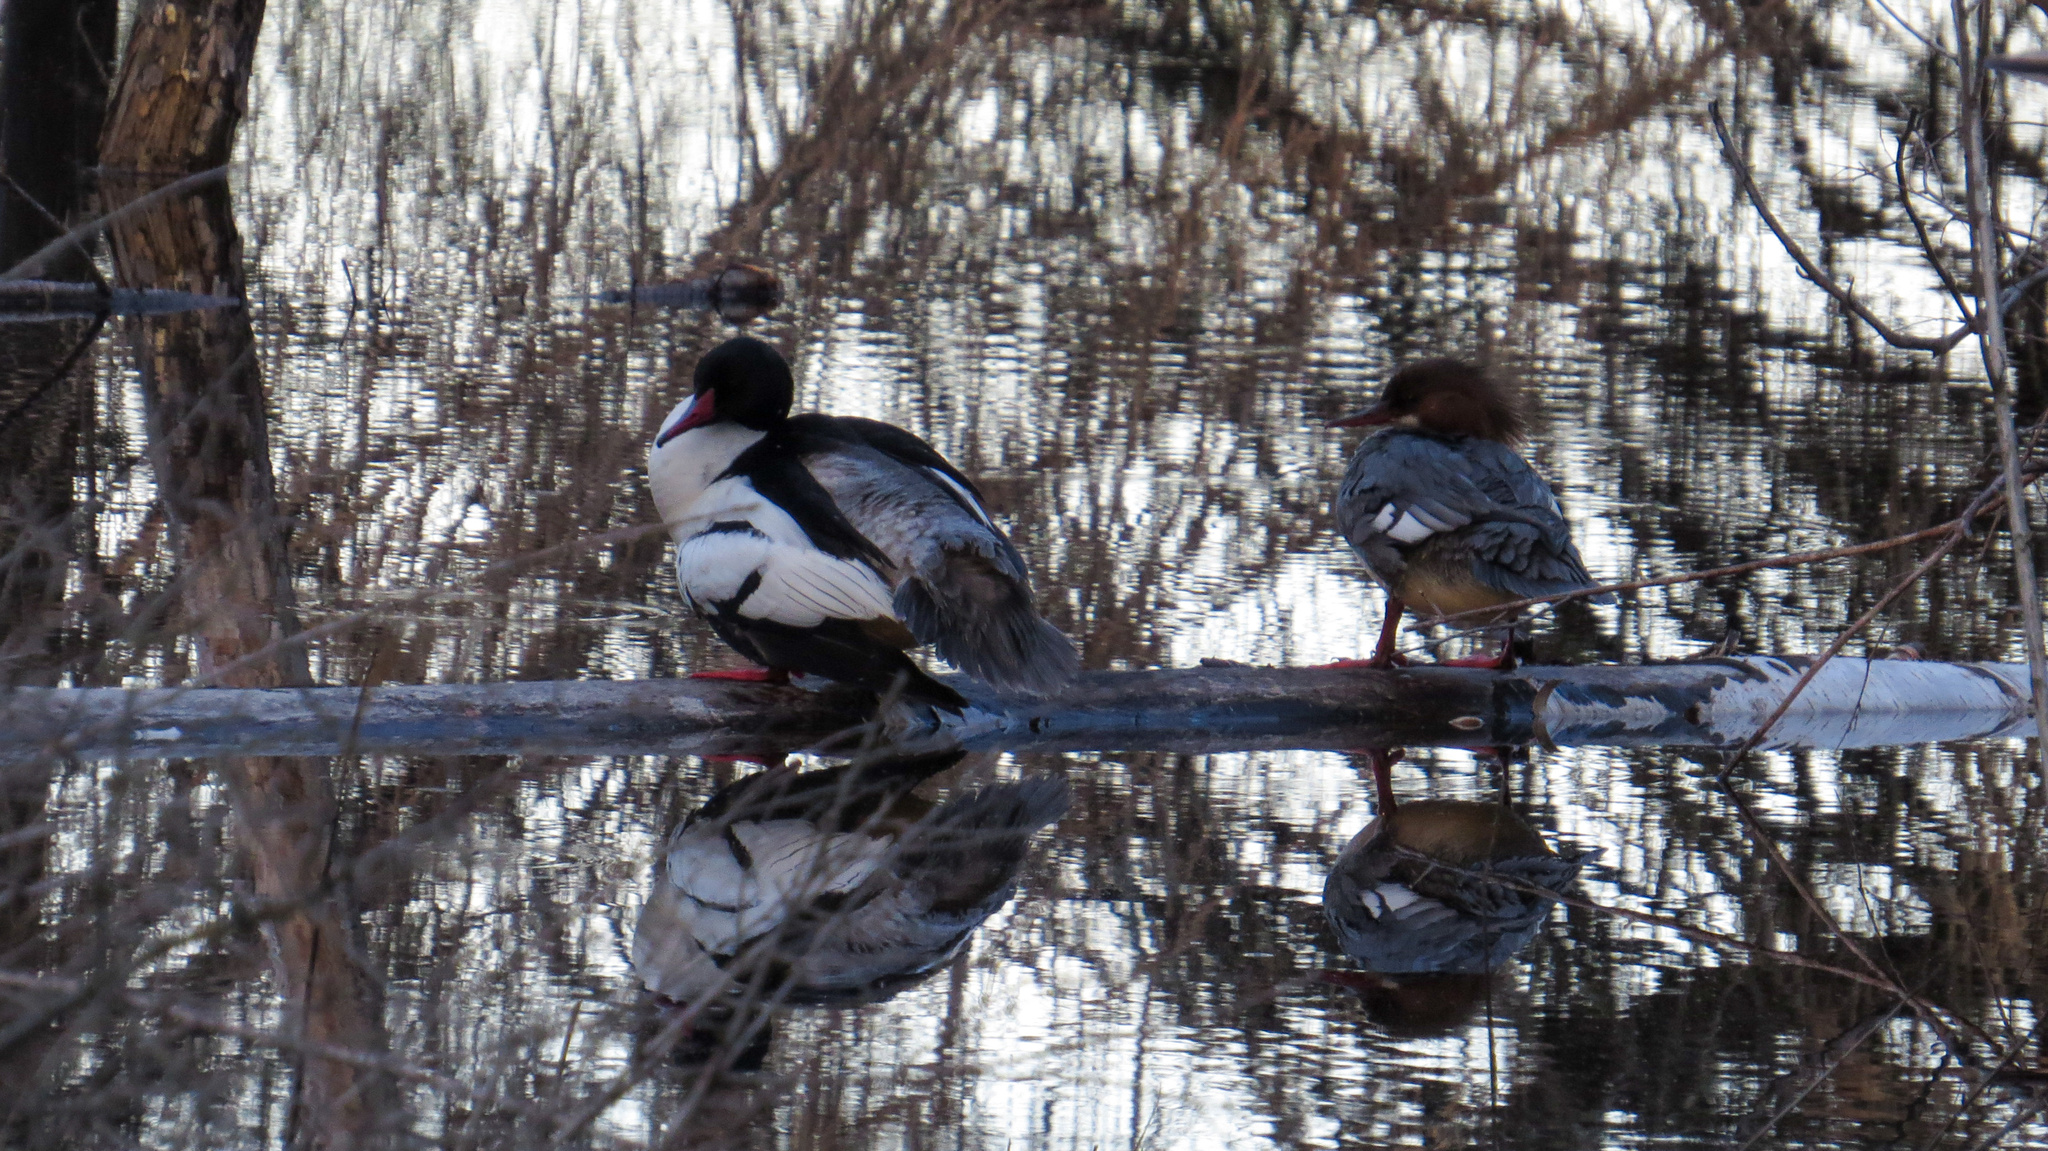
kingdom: Animalia
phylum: Chordata
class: Aves
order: Anseriformes
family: Anatidae
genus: Mergus
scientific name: Mergus merganser
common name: Common merganser
